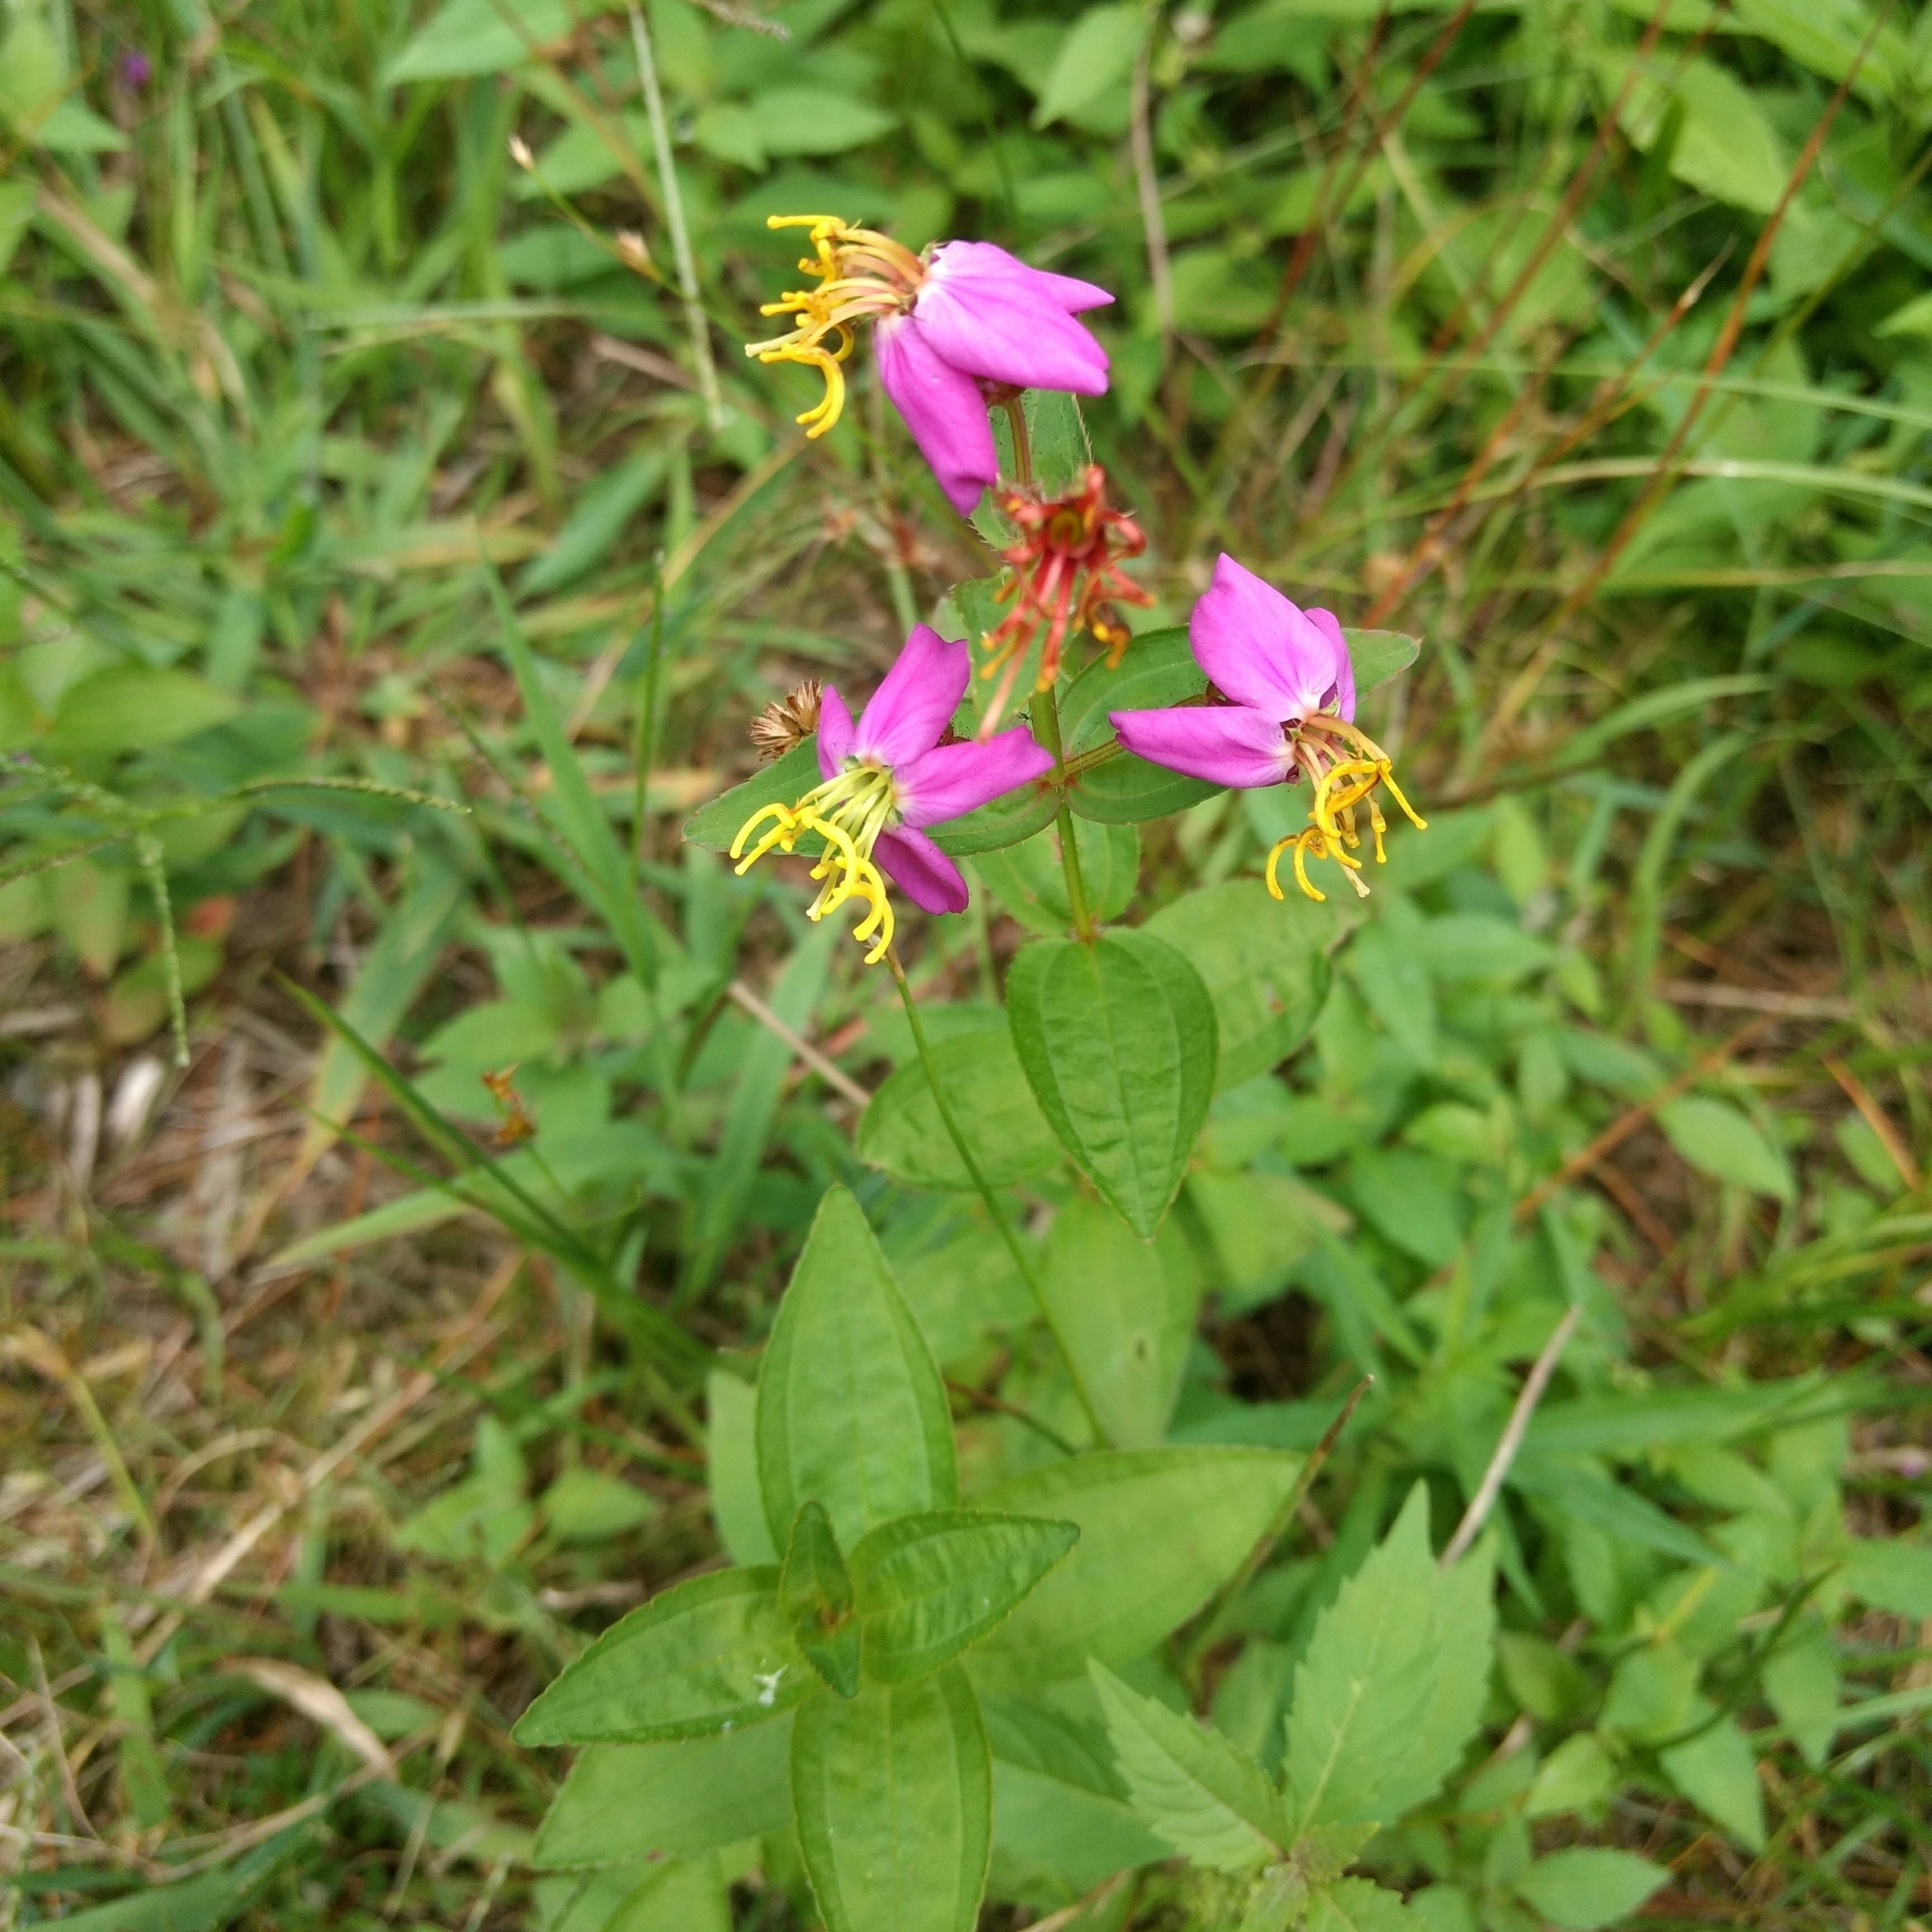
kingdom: Plantae
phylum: Tracheophyta
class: Magnoliopsida
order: Myrtales
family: Melastomataceae
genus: Rhexia
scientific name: Rhexia virginica
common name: Common meadow beauty
